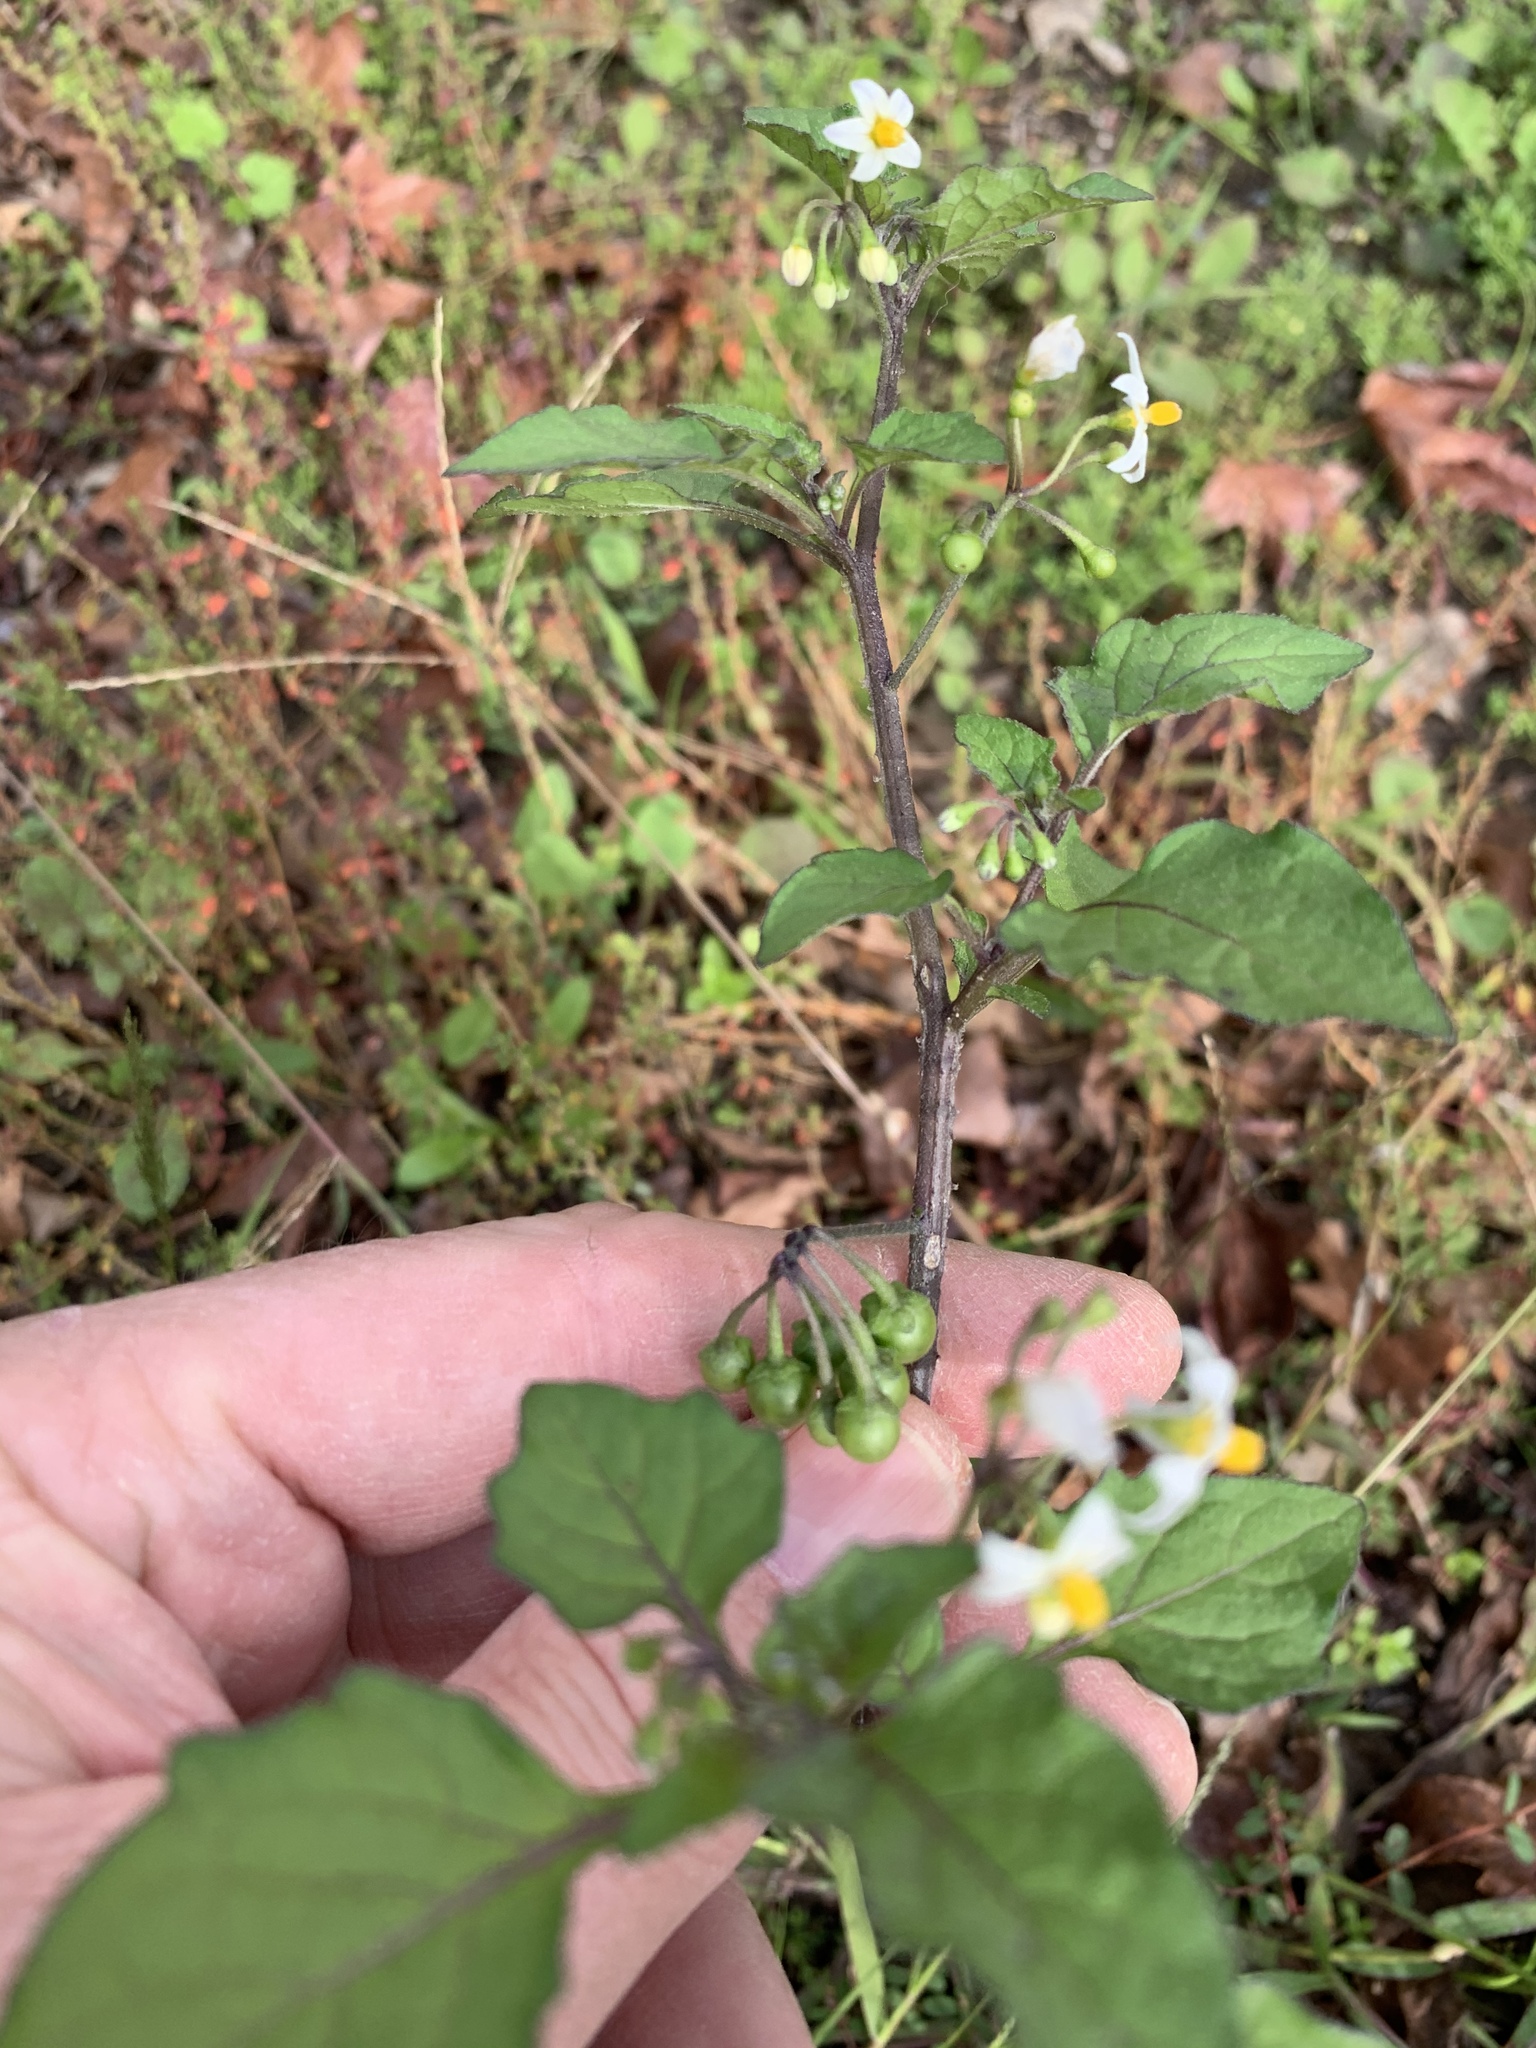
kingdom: Plantae
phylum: Tracheophyta
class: Magnoliopsida
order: Solanales
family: Solanaceae
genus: Solanum
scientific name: Solanum nigrum
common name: Black nightshade
